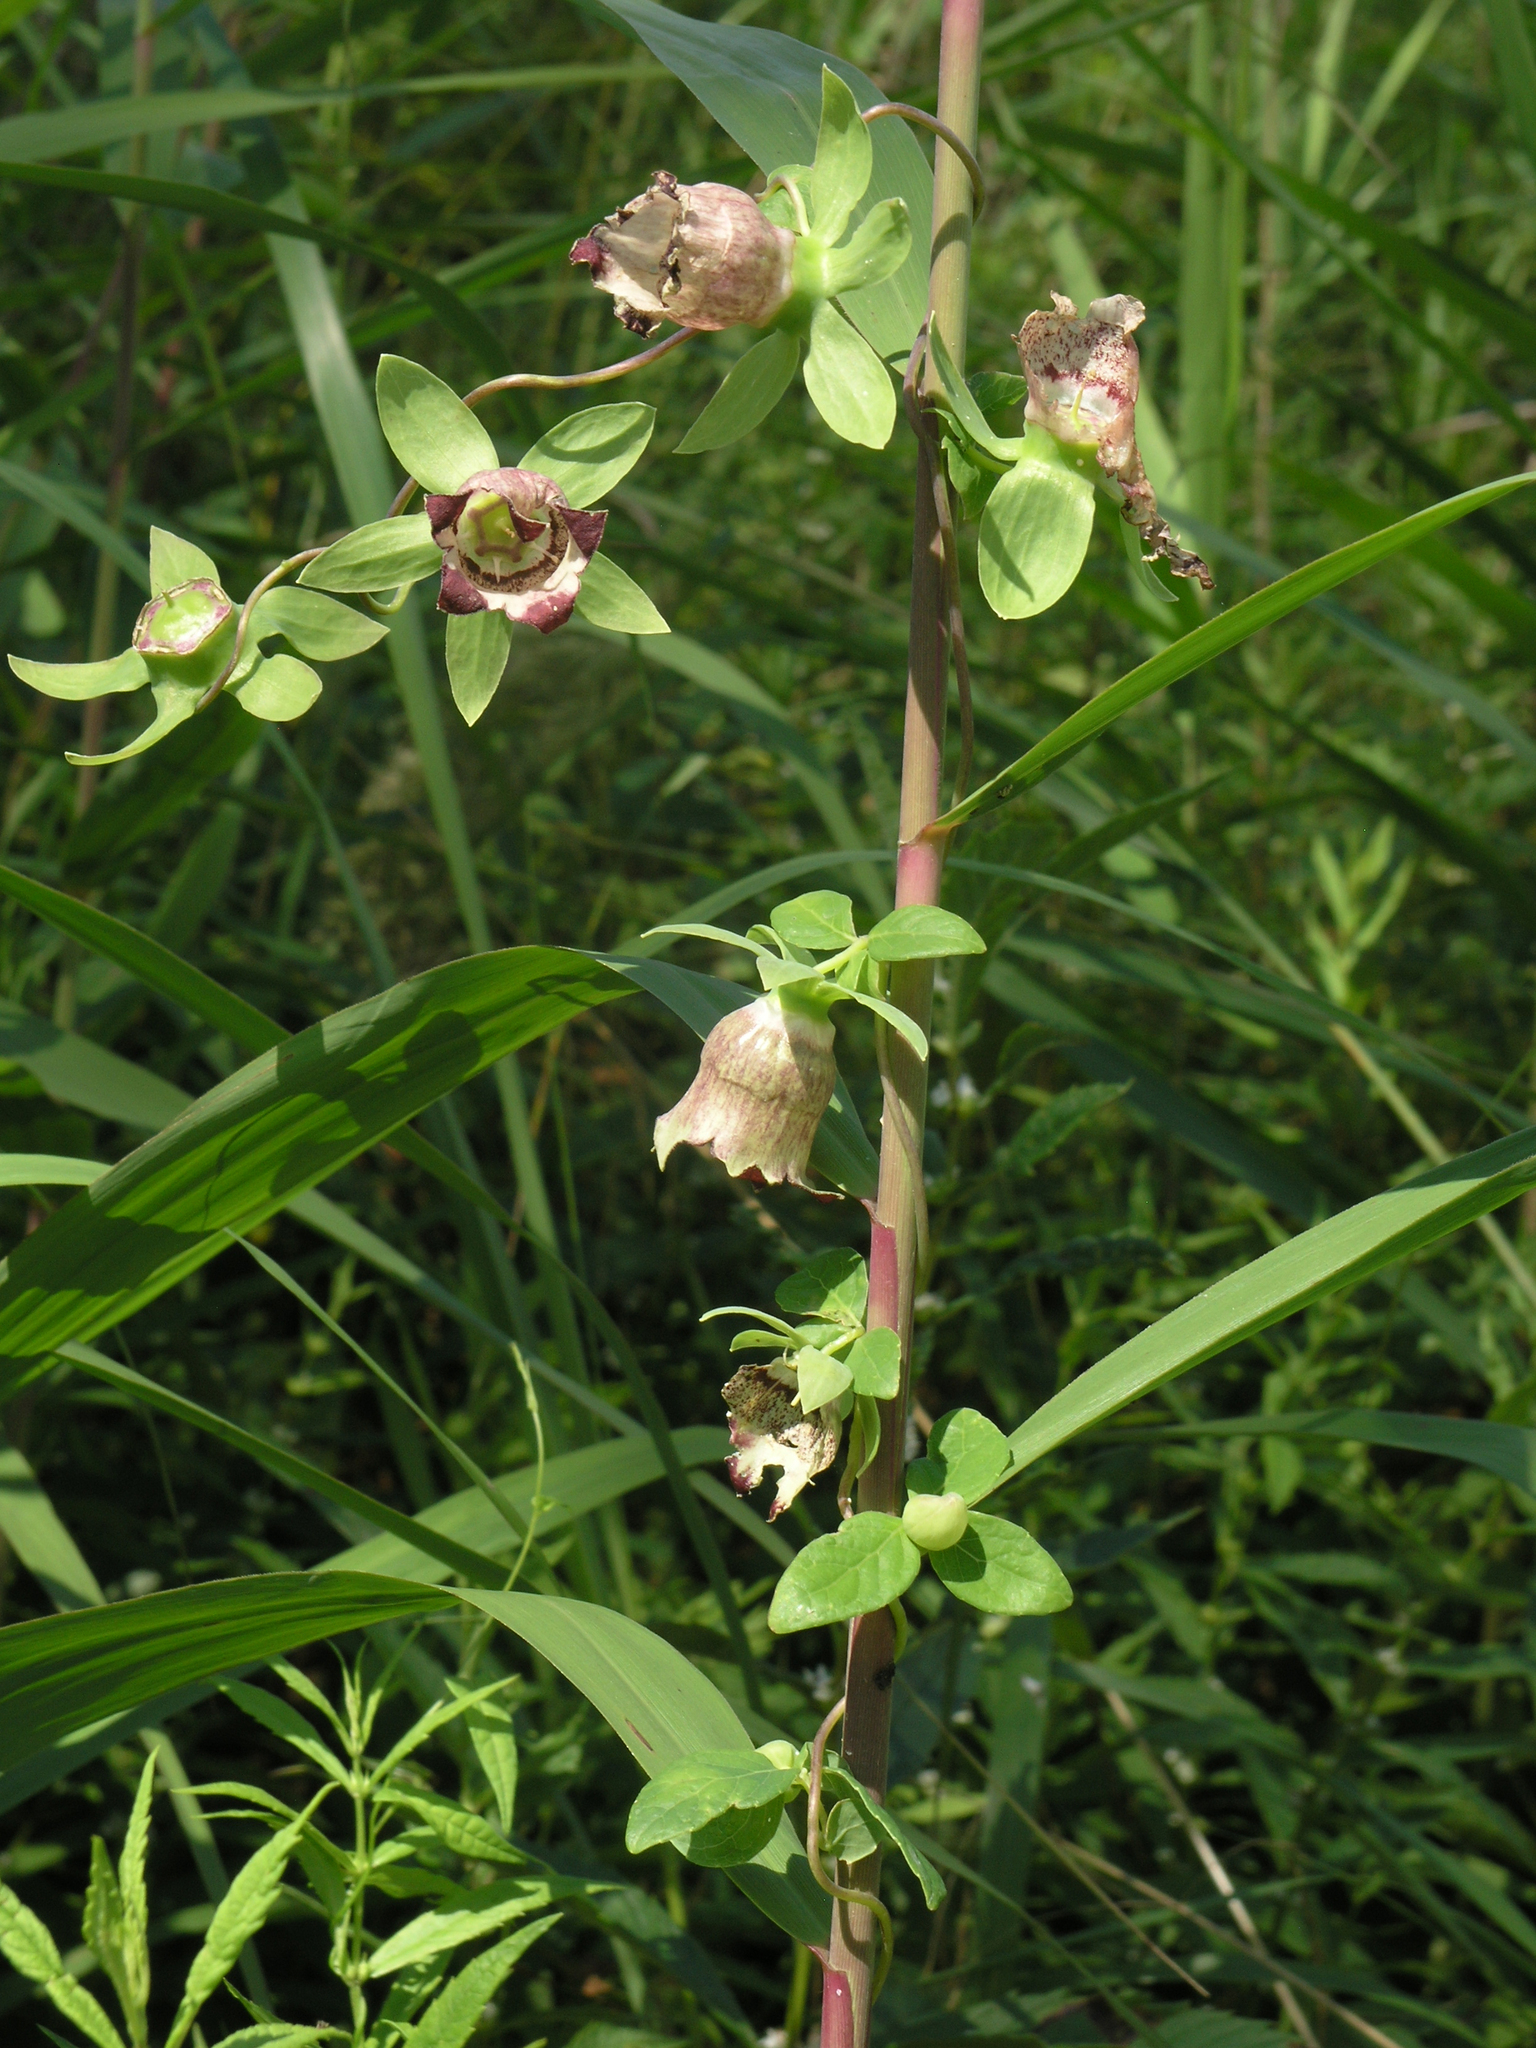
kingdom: Plantae
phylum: Tracheophyta
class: Magnoliopsida
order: Asterales
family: Campanulaceae
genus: Codonopsis
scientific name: Codonopsis ussuriensis
